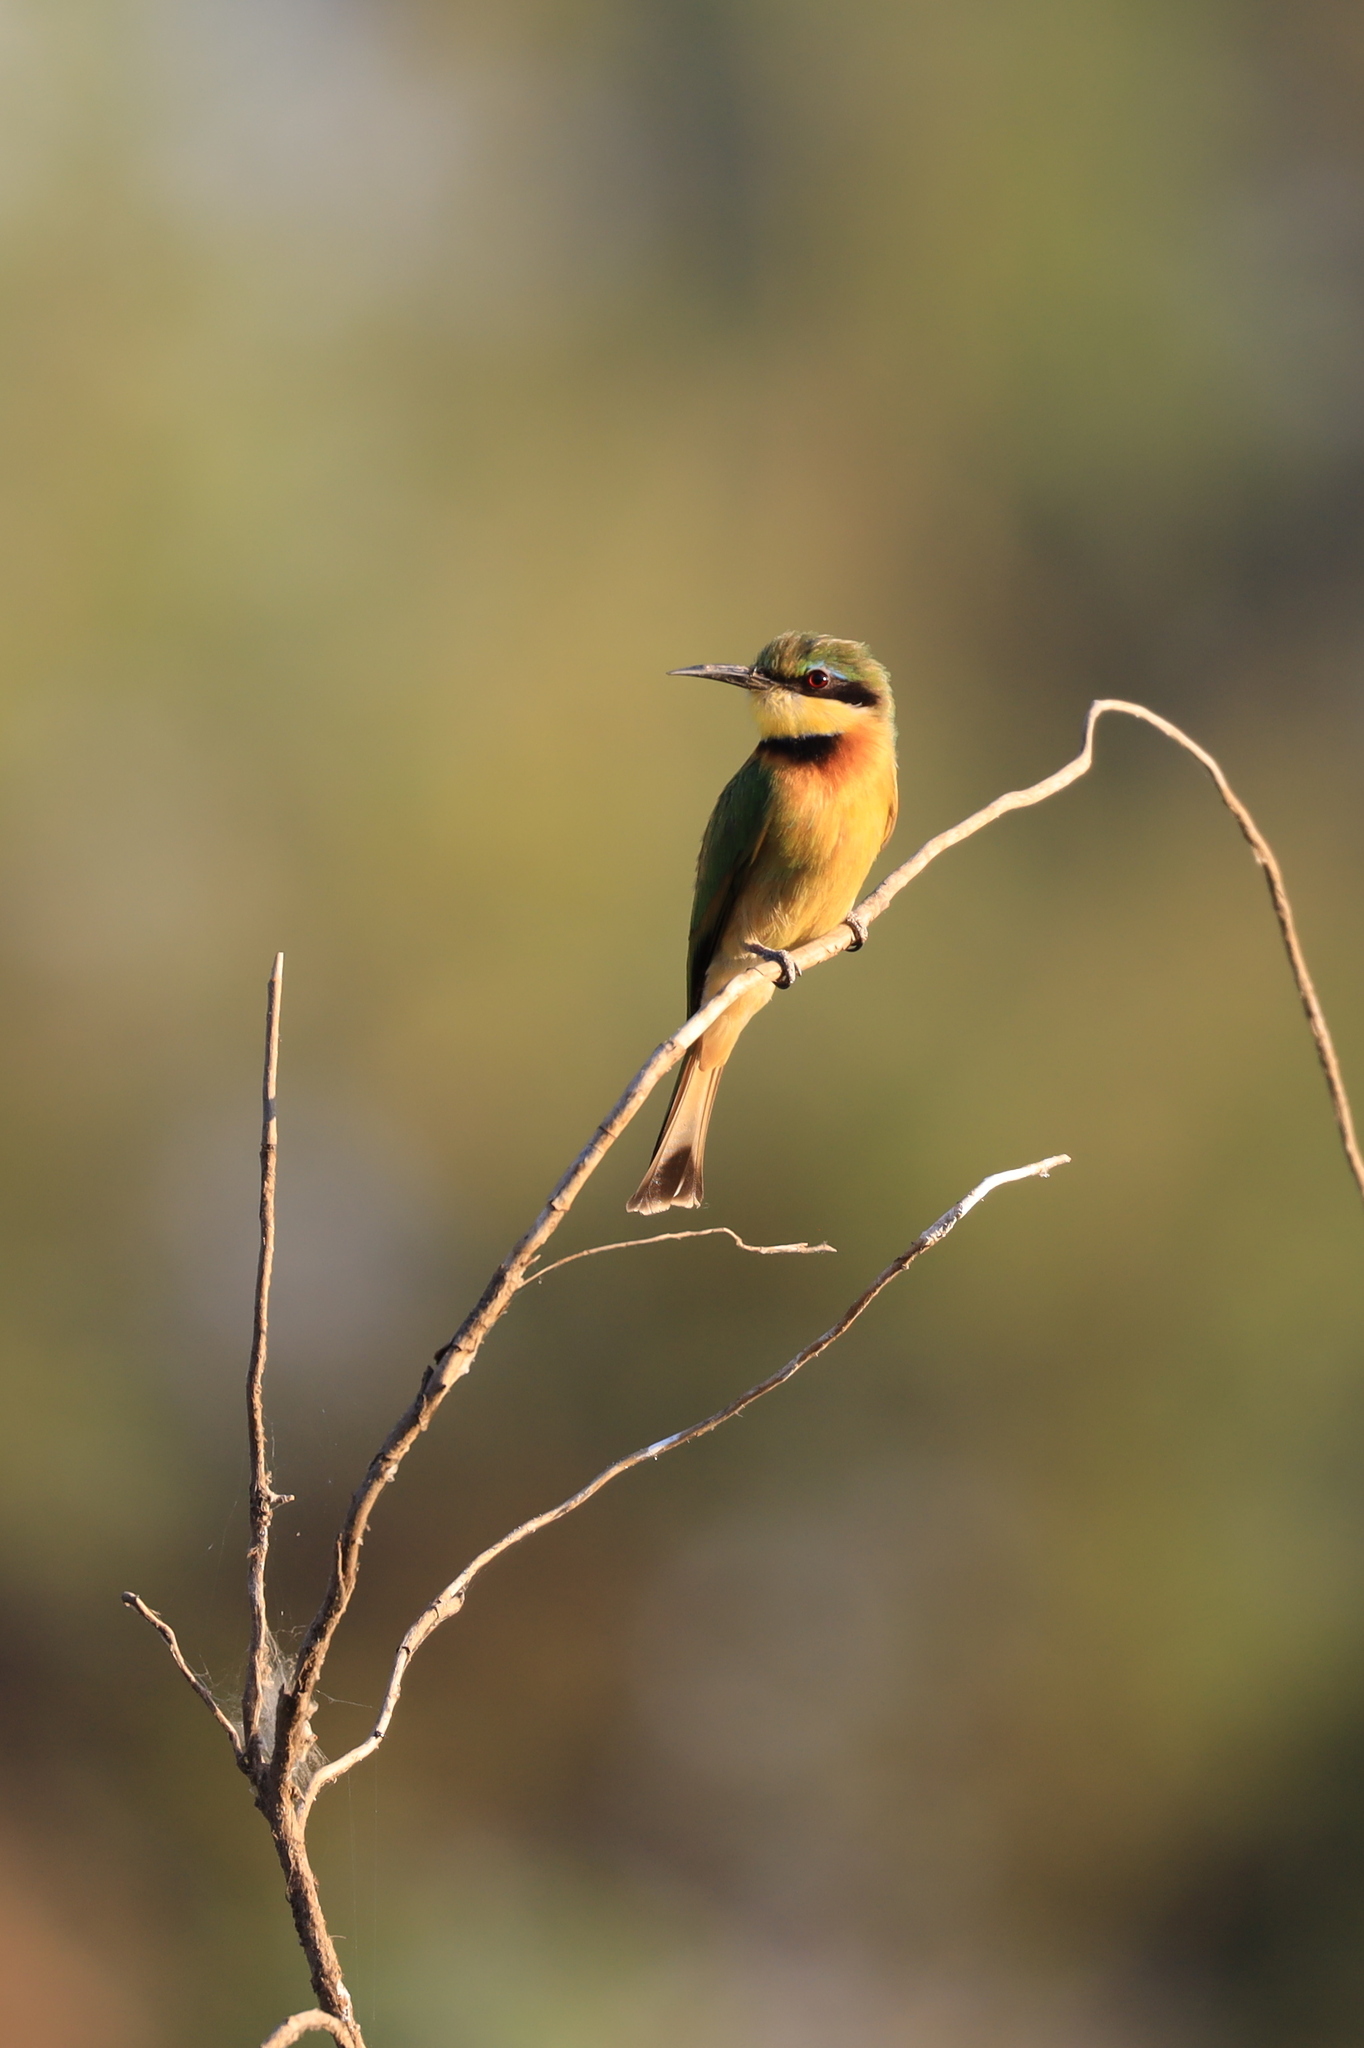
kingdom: Animalia
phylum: Chordata
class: Aves
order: Coraciiformes
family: Meropidae
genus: Merops
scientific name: Merops pusillus
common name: Little bee-eater
